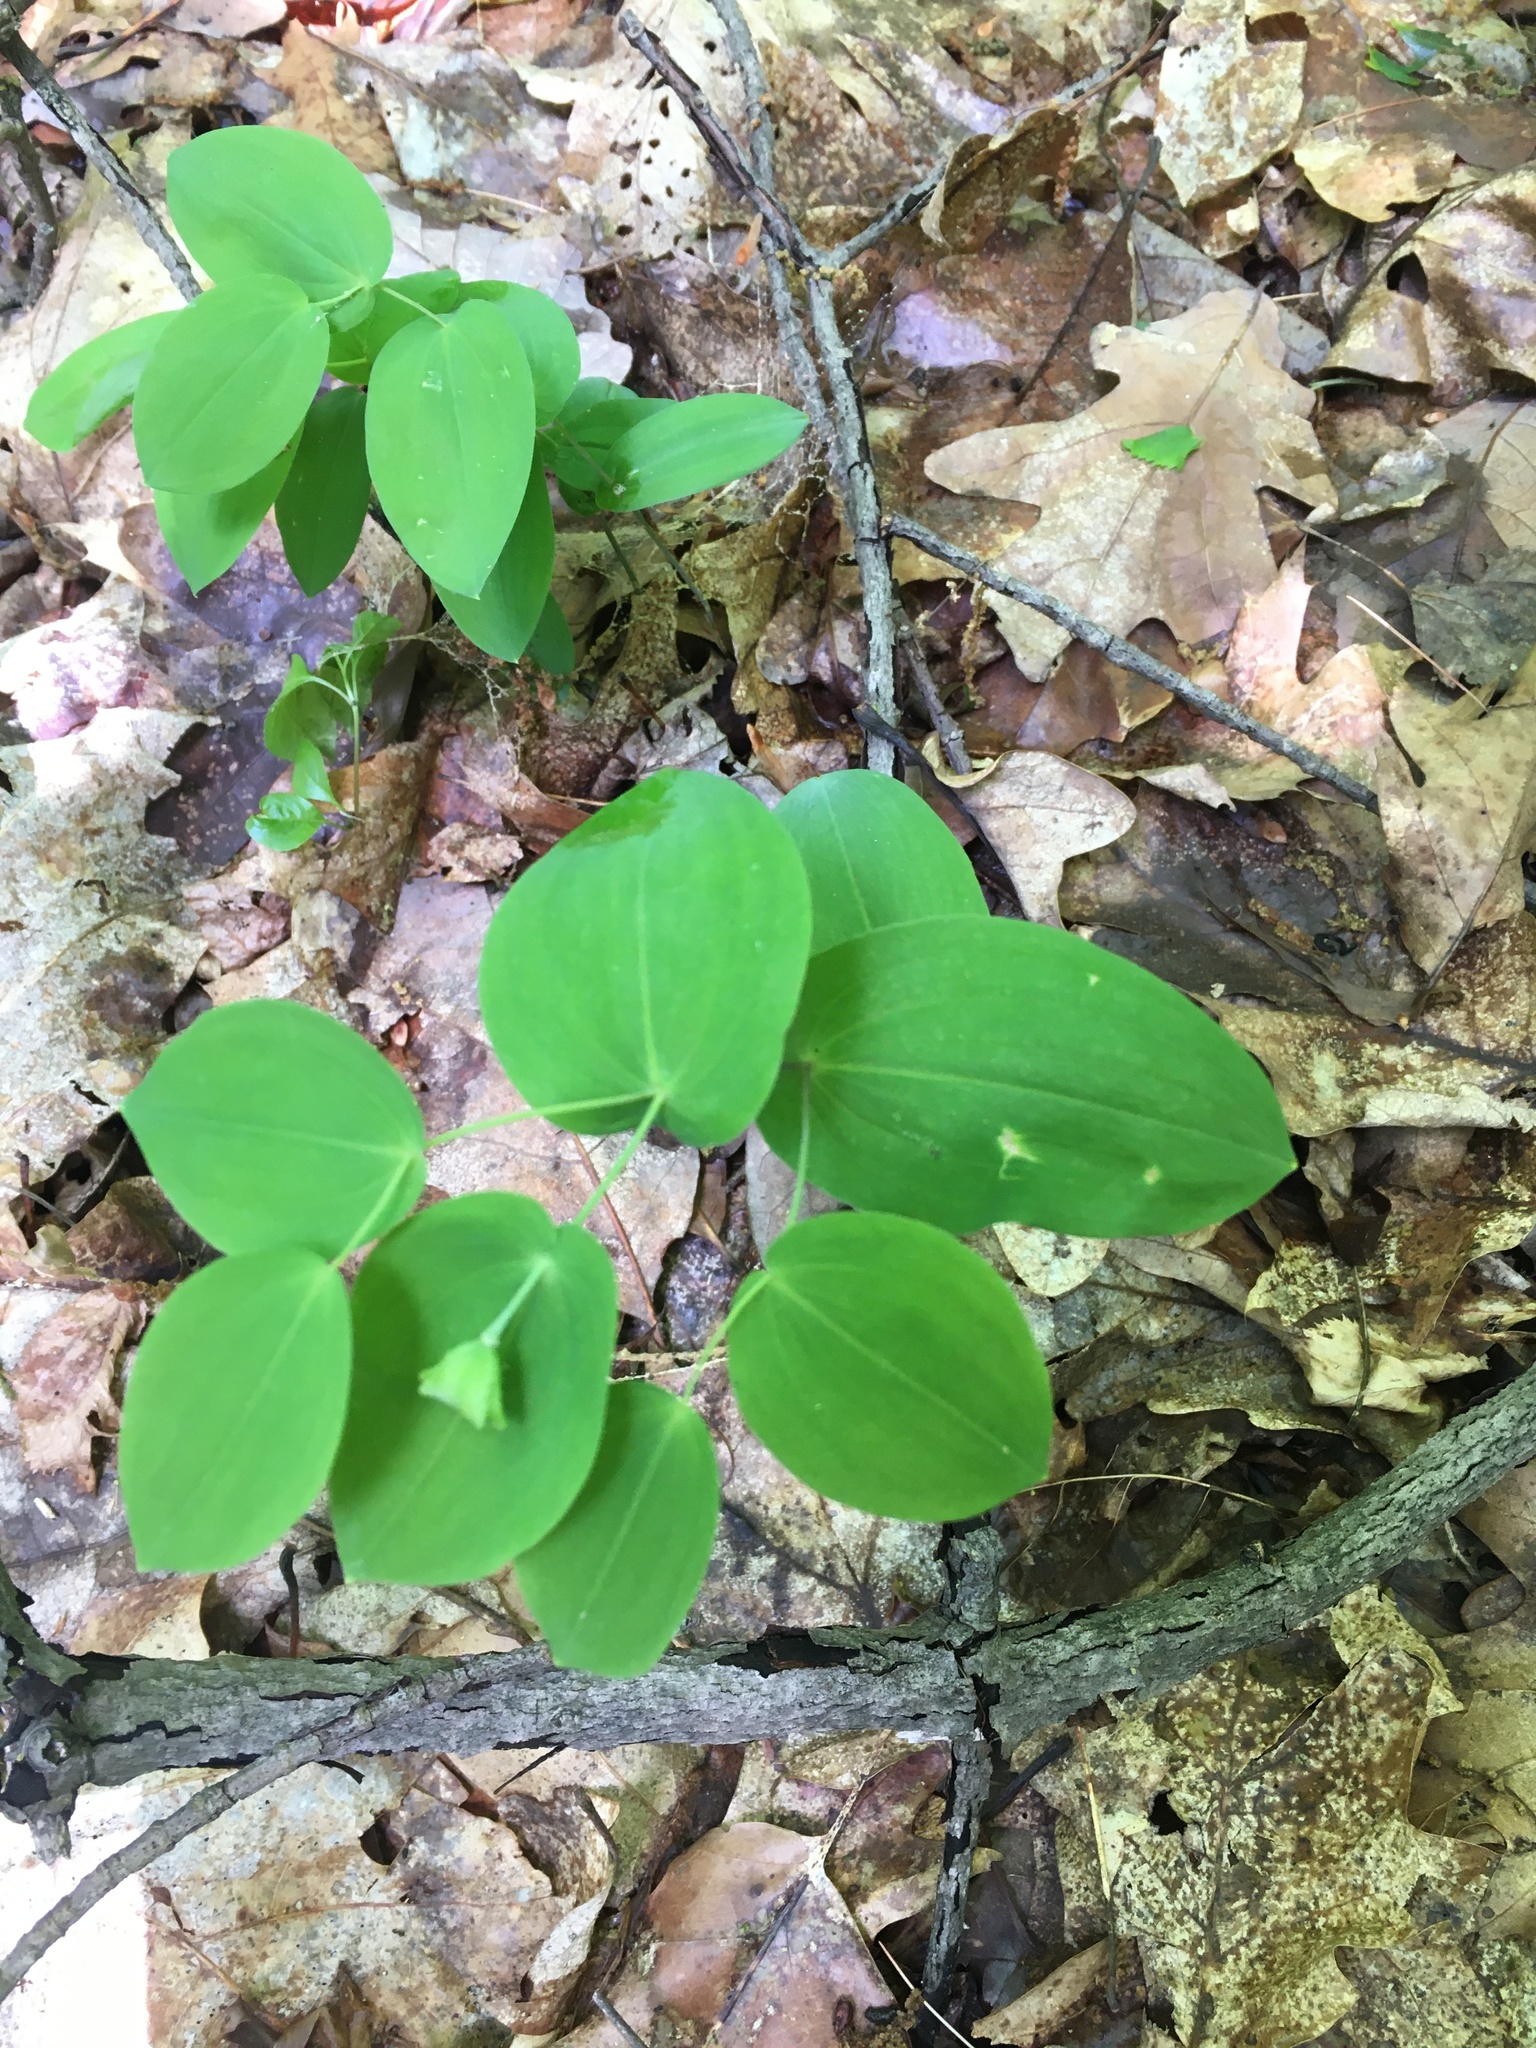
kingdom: Plantae
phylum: Tracheophyta
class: Liliopsida
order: Liliales
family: Colchicaceae
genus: Uvularia
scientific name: Uvularia perfoliata
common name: Perfoliate bellwort
